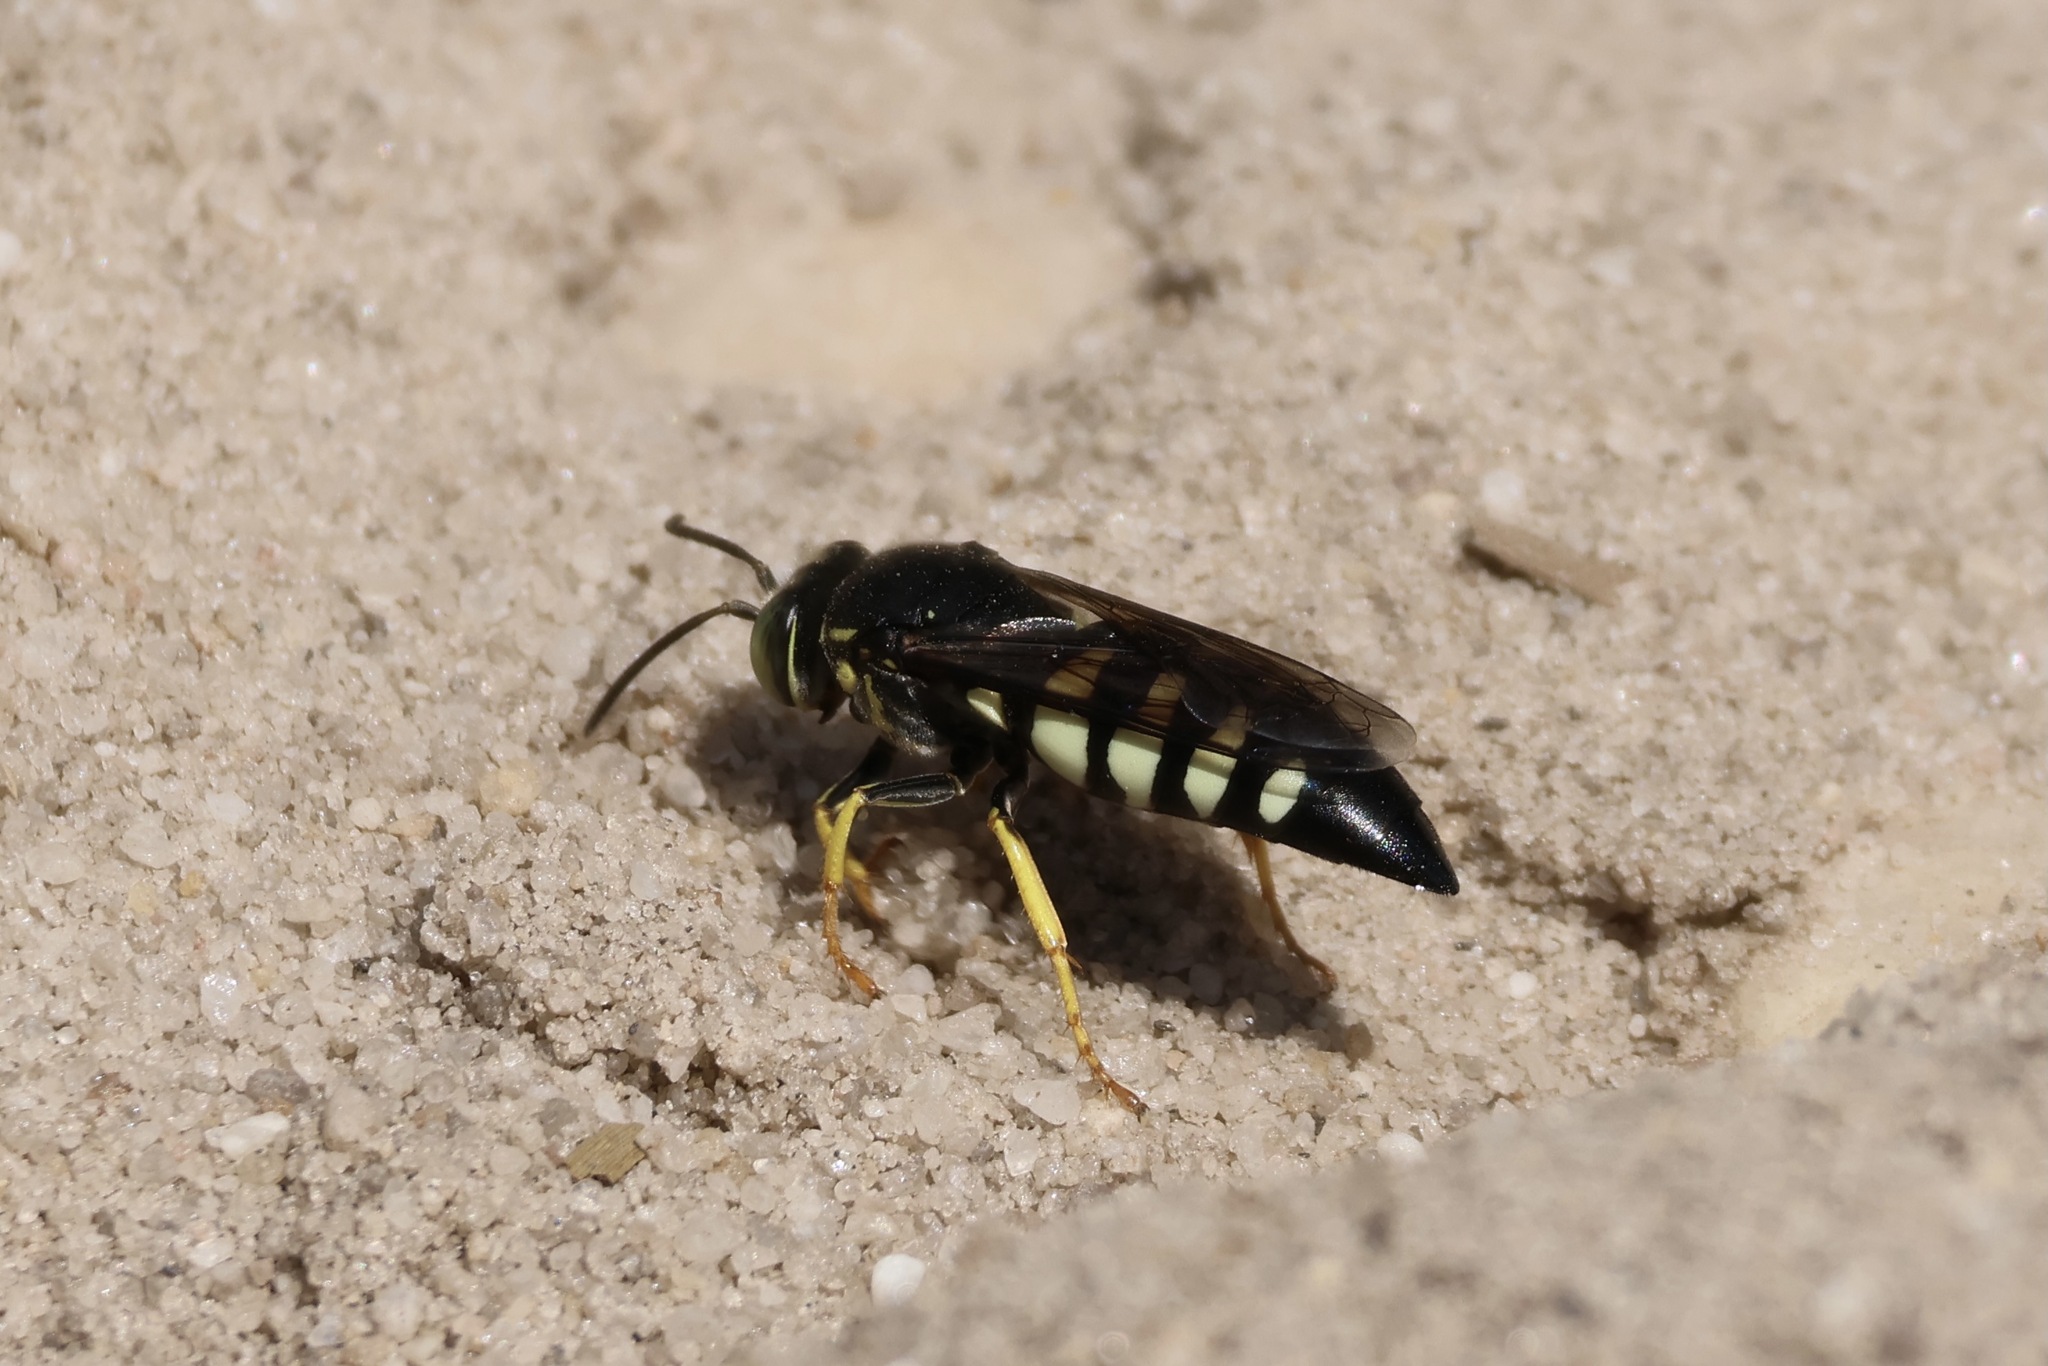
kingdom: Animalia
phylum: Arthropoda
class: Insecta
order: Hymenoptera
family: Crabronidae
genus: Bicyrtes
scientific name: Bicyrtes quadrifasciatus
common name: Four-banded stink bug hunter wasp
